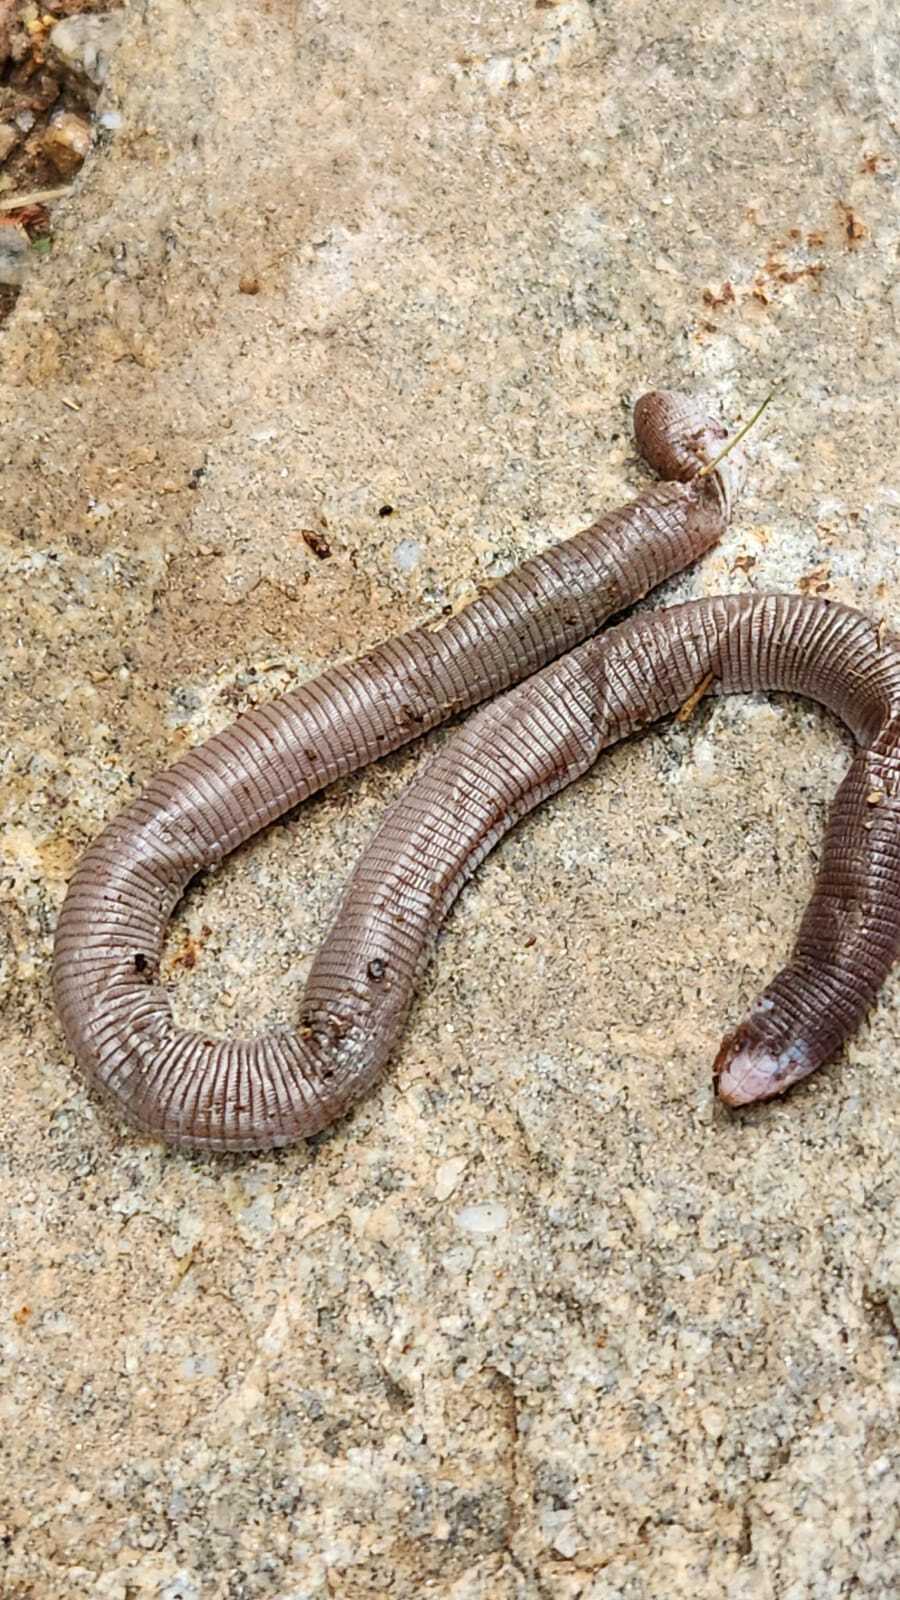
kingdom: Animalia
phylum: Chordata
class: Squamata
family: Amphisbaenidae
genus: Amphisbaena
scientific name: Amphisbaena darwinii
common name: Darwin's ringed worm lizard
